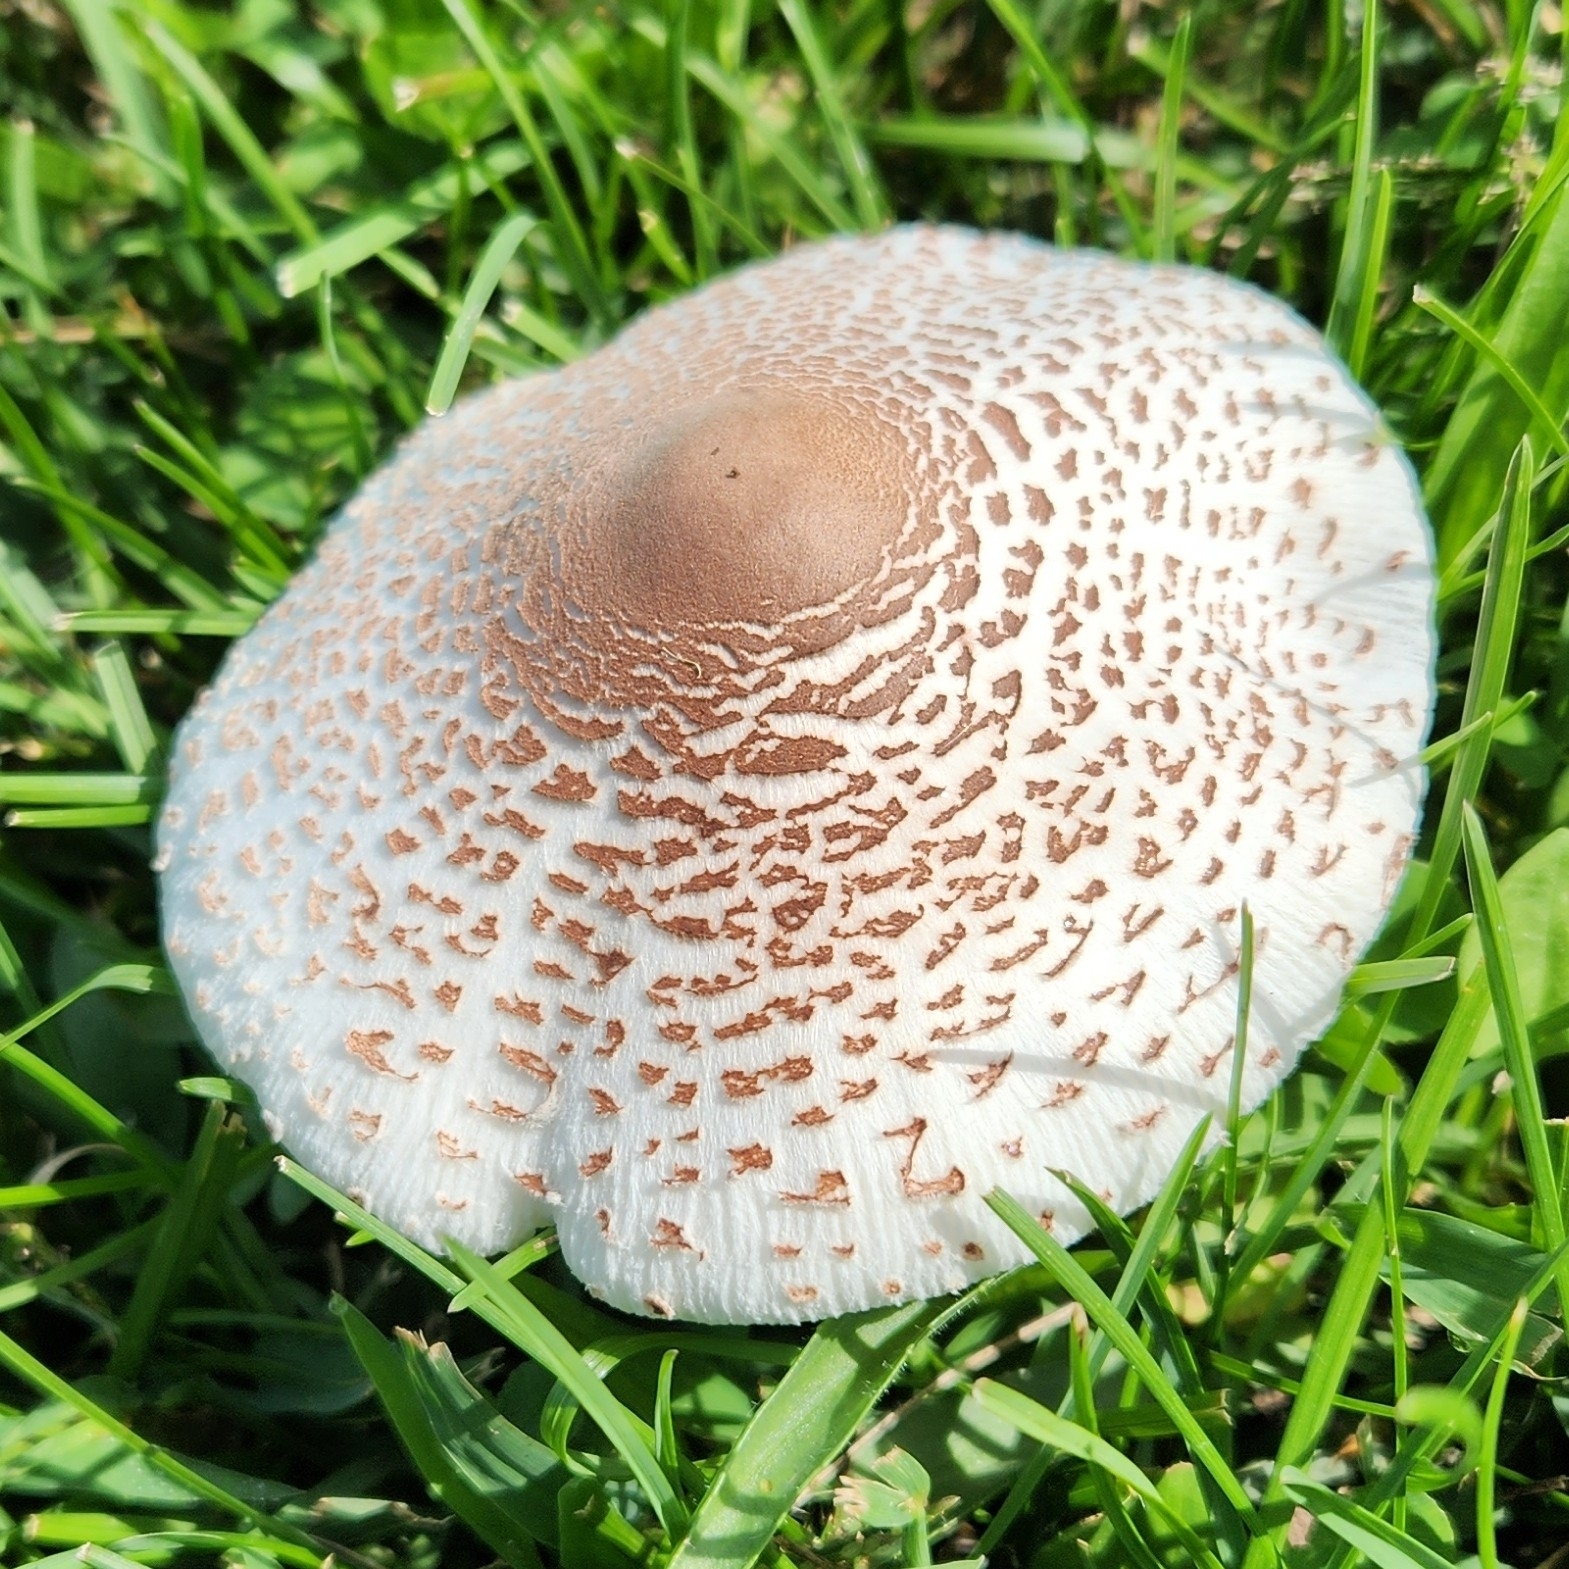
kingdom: Fungi
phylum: Basidiomycota
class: Agaricomycetes
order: Agaricales
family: Agaricaceae
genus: Leucoagaricus
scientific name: Leucoagaricus americanus
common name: Reddening lepiota
